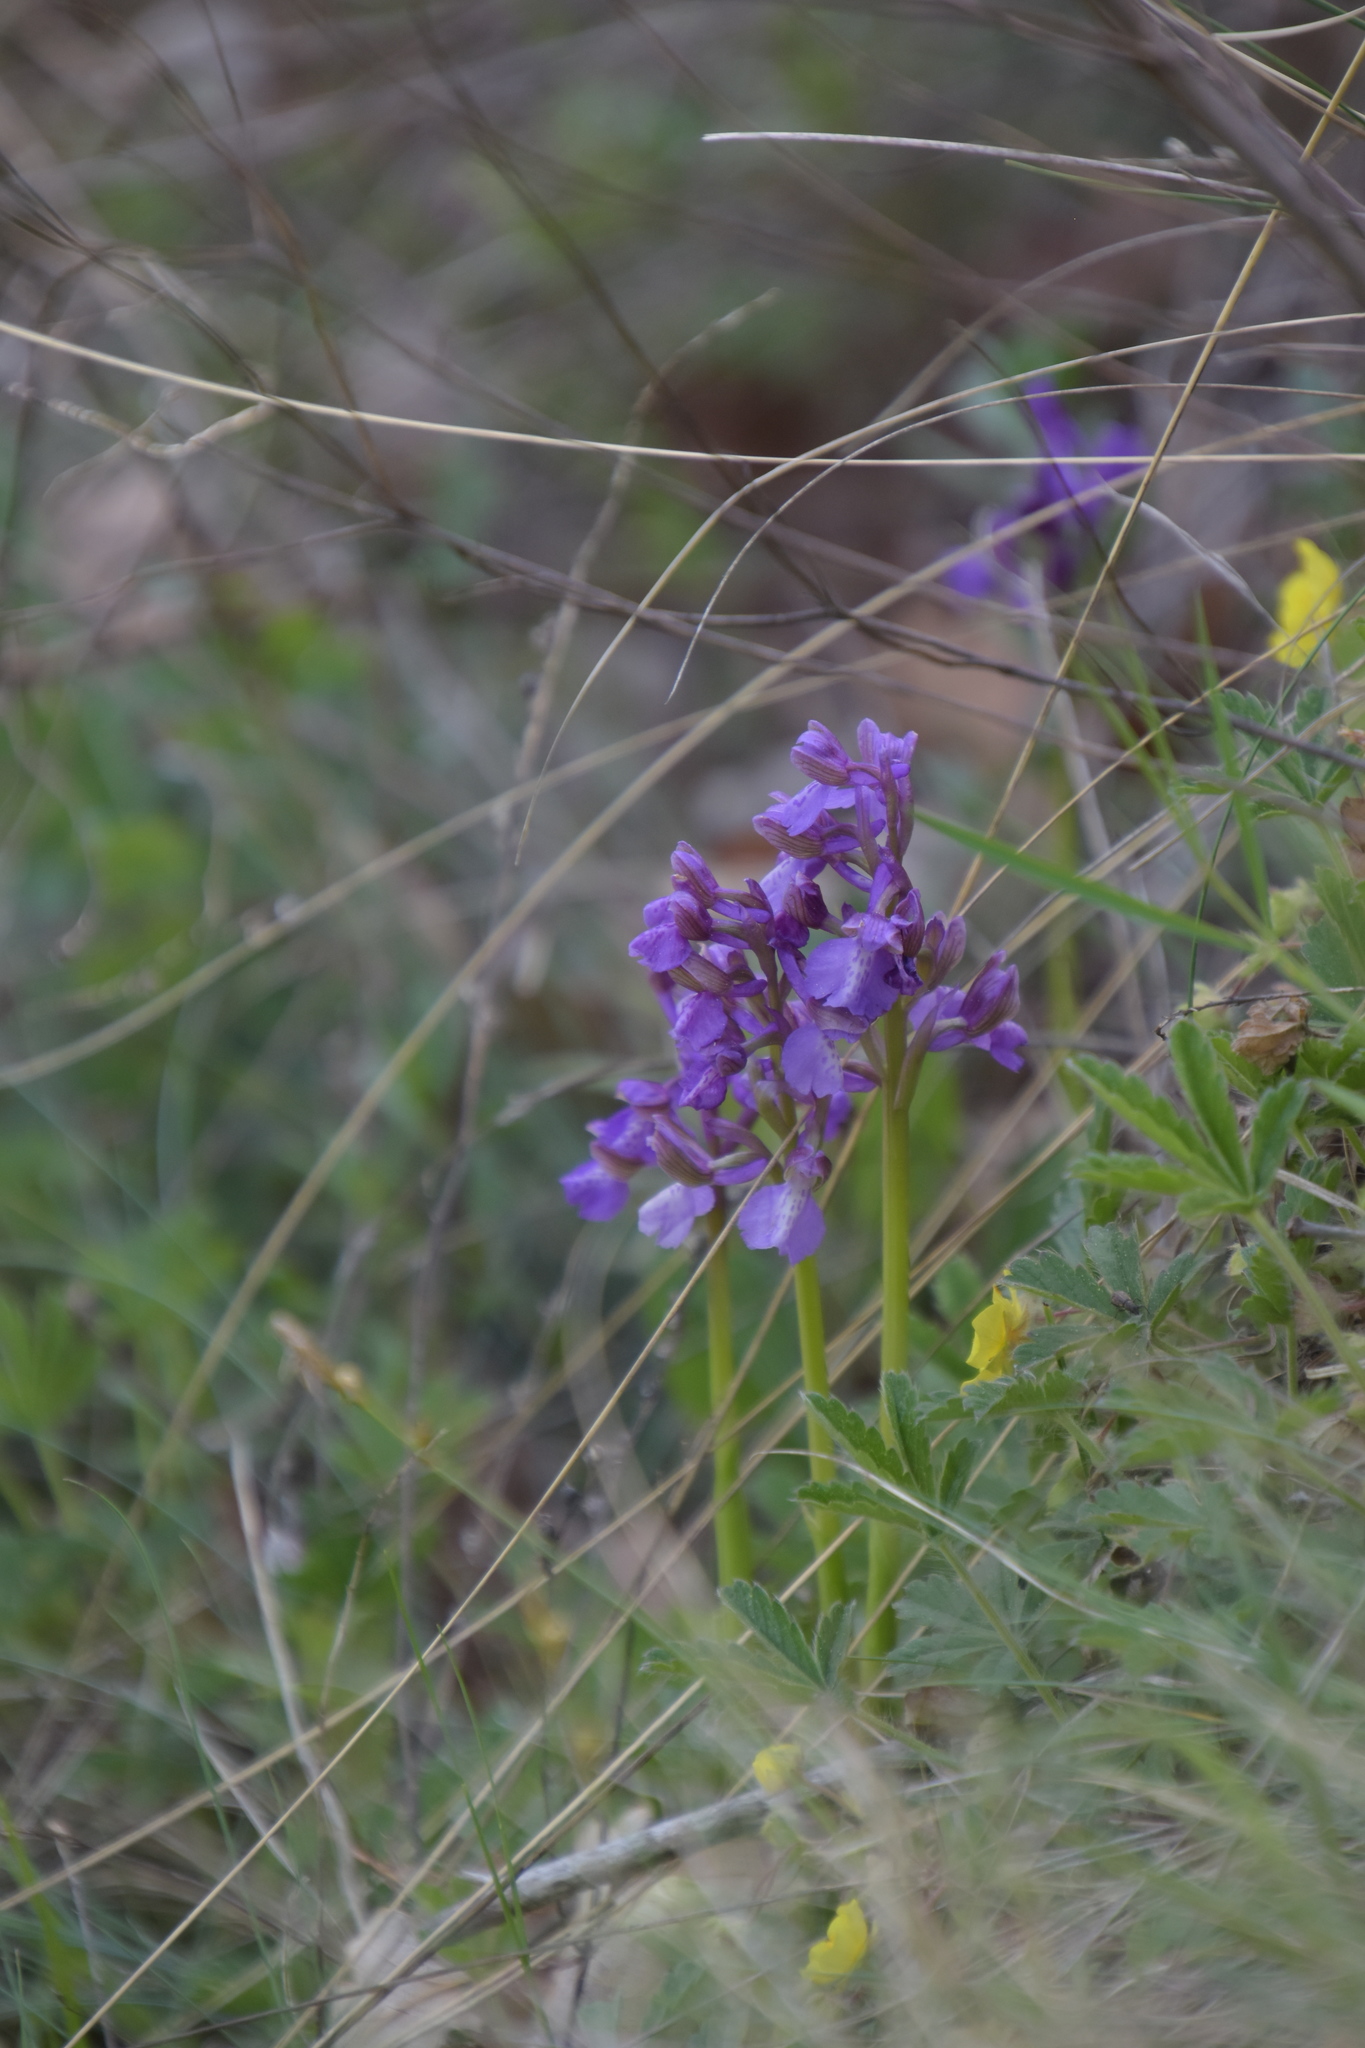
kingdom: Plantae
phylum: Tracheophyta
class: Liliopsida
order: Asparagales
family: Orchidaceae
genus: Anacamptis
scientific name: Anacamptis morio
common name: Green-winged orchid
